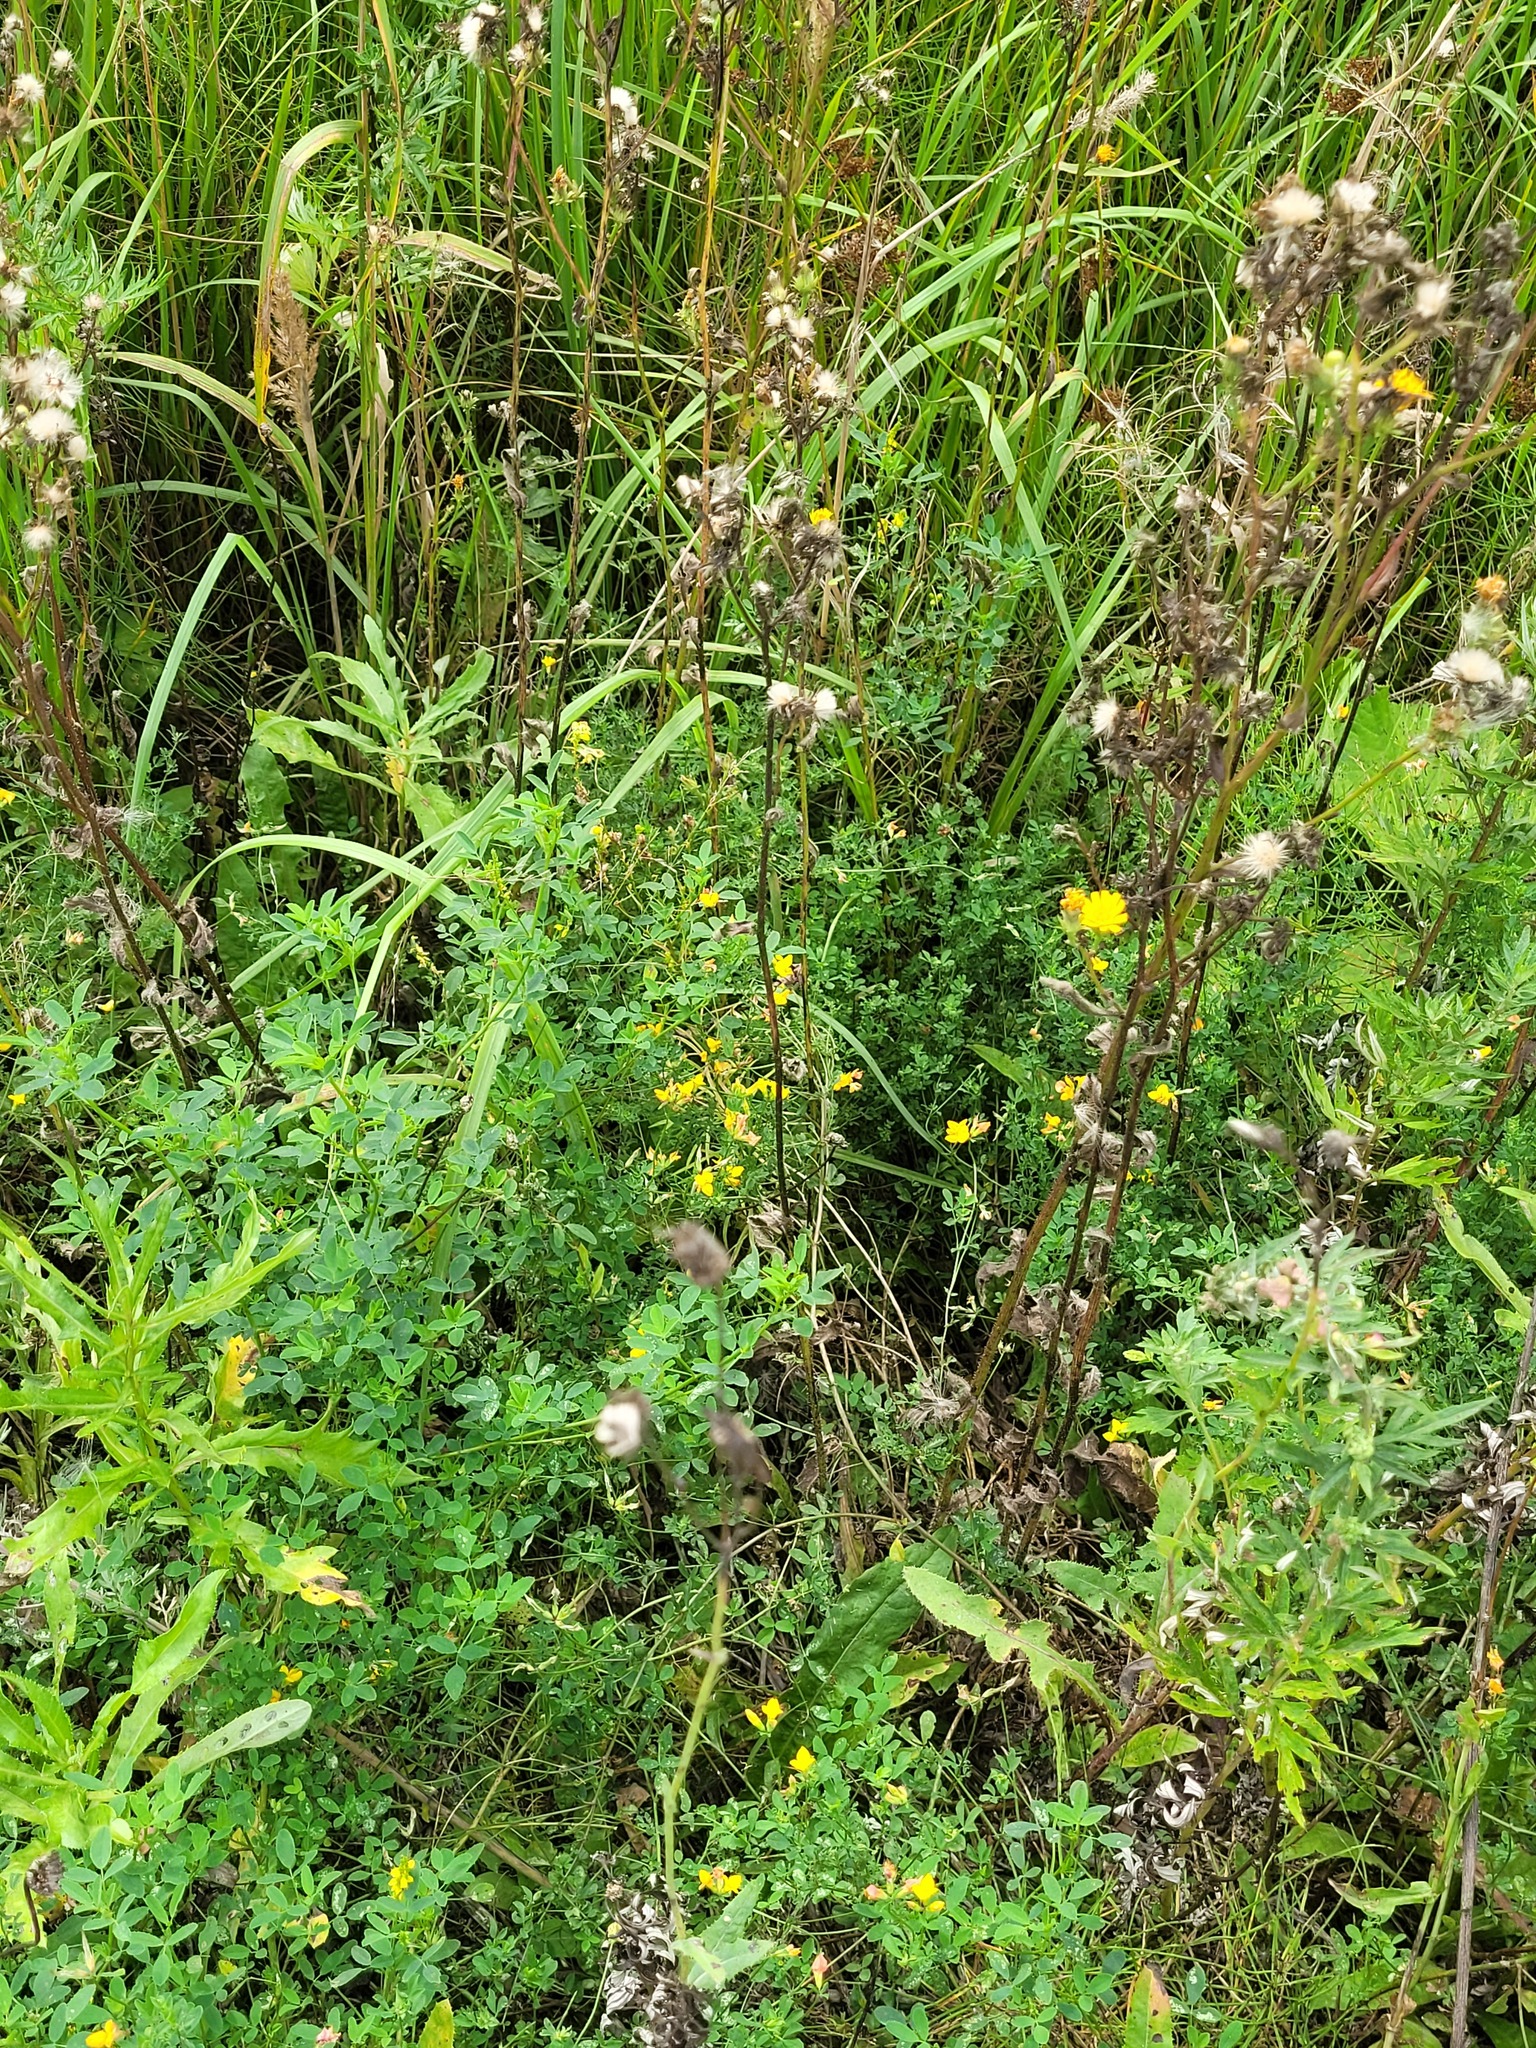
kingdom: Plantae
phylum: Tracheophyta
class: Magnoliopsida
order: Fabales
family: Fabaceae
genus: Lotus
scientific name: Lotus corniculatus
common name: Common bird's-foot-trefoil
